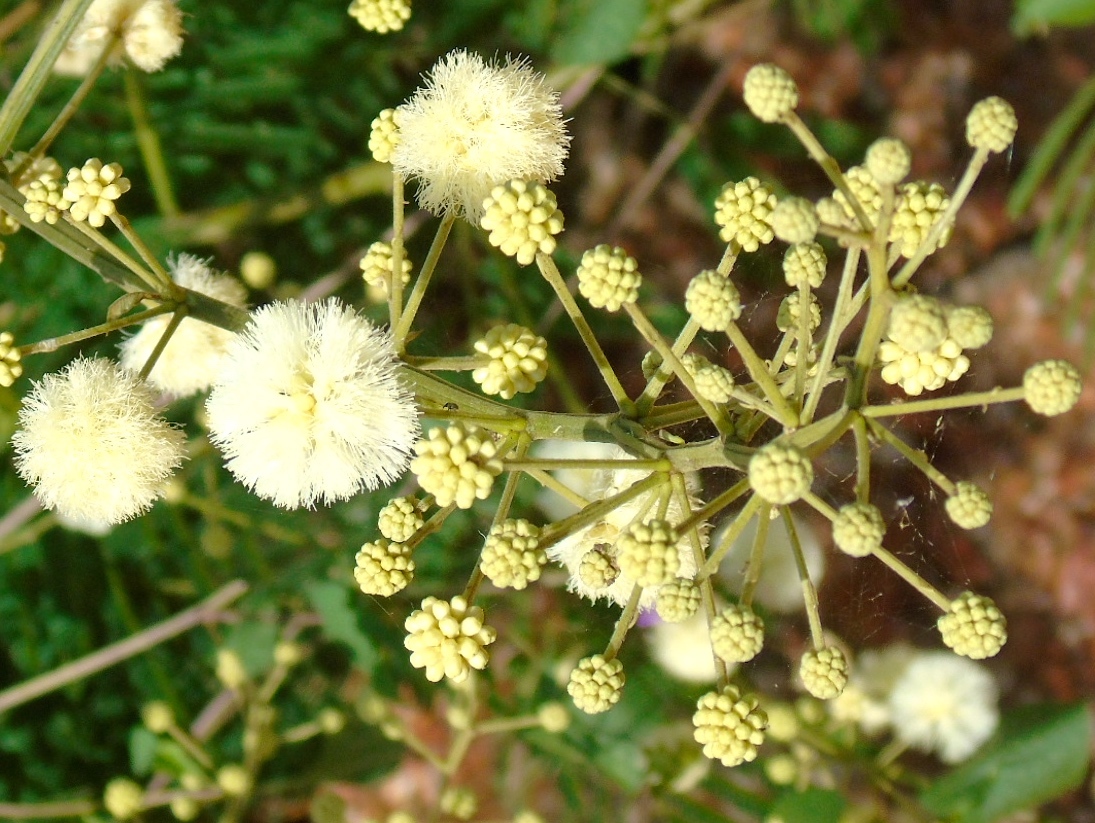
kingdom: Plantae
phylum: Tracheophyta
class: Magnoliopsida
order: Fabales
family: Fabaceae
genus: Mimosa
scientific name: Mimosa malacophylla
